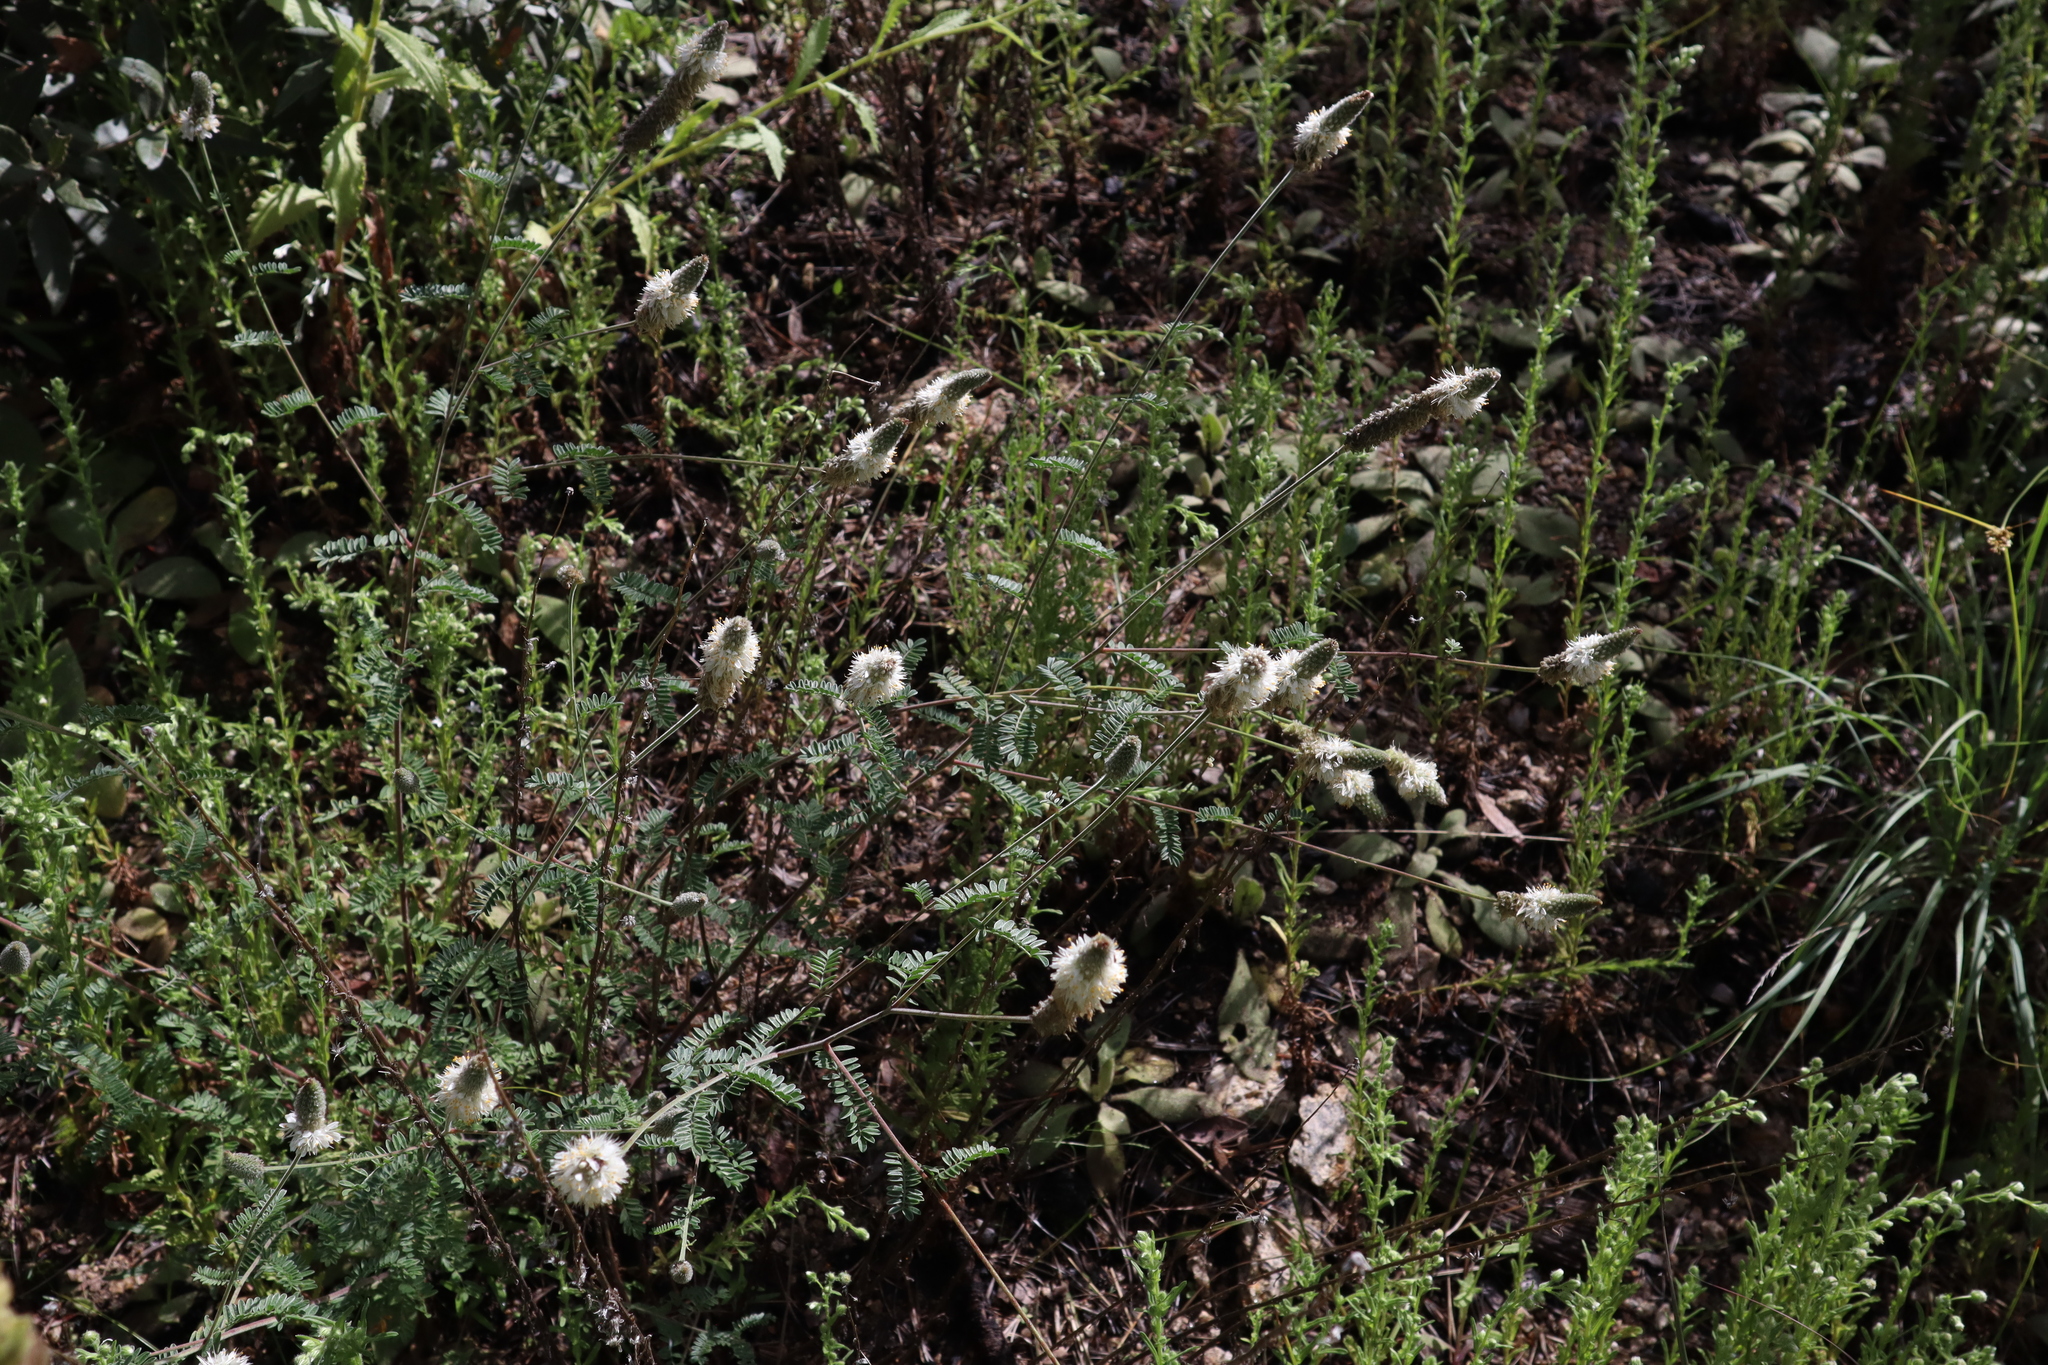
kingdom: Plantae
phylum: Tracheophyta
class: Magnoliopsida
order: Fabales
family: Fabaceae
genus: Dalea
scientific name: Dalea albiflora
